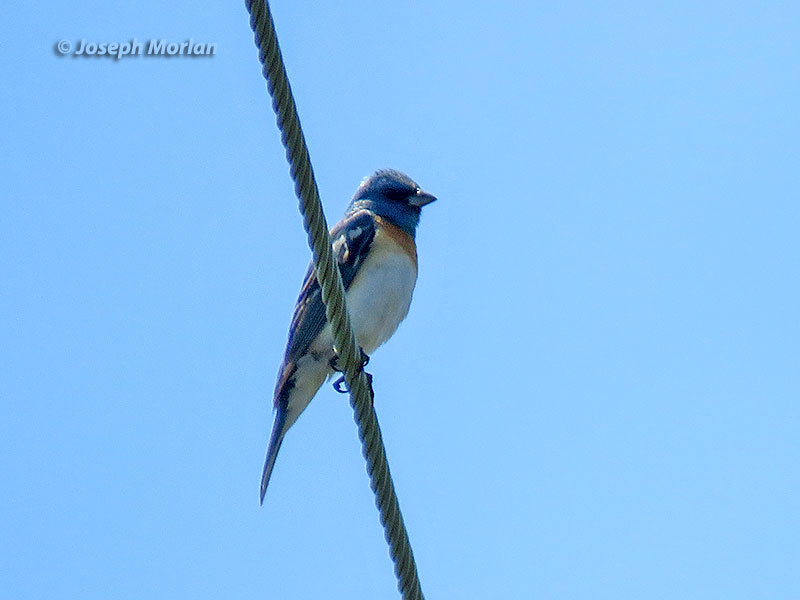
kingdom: Animalia
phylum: Chordata
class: Aves
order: Passeriformes
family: Cardinalidae
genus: Passerina
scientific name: Passerina amoena
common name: Lazuli bunting
